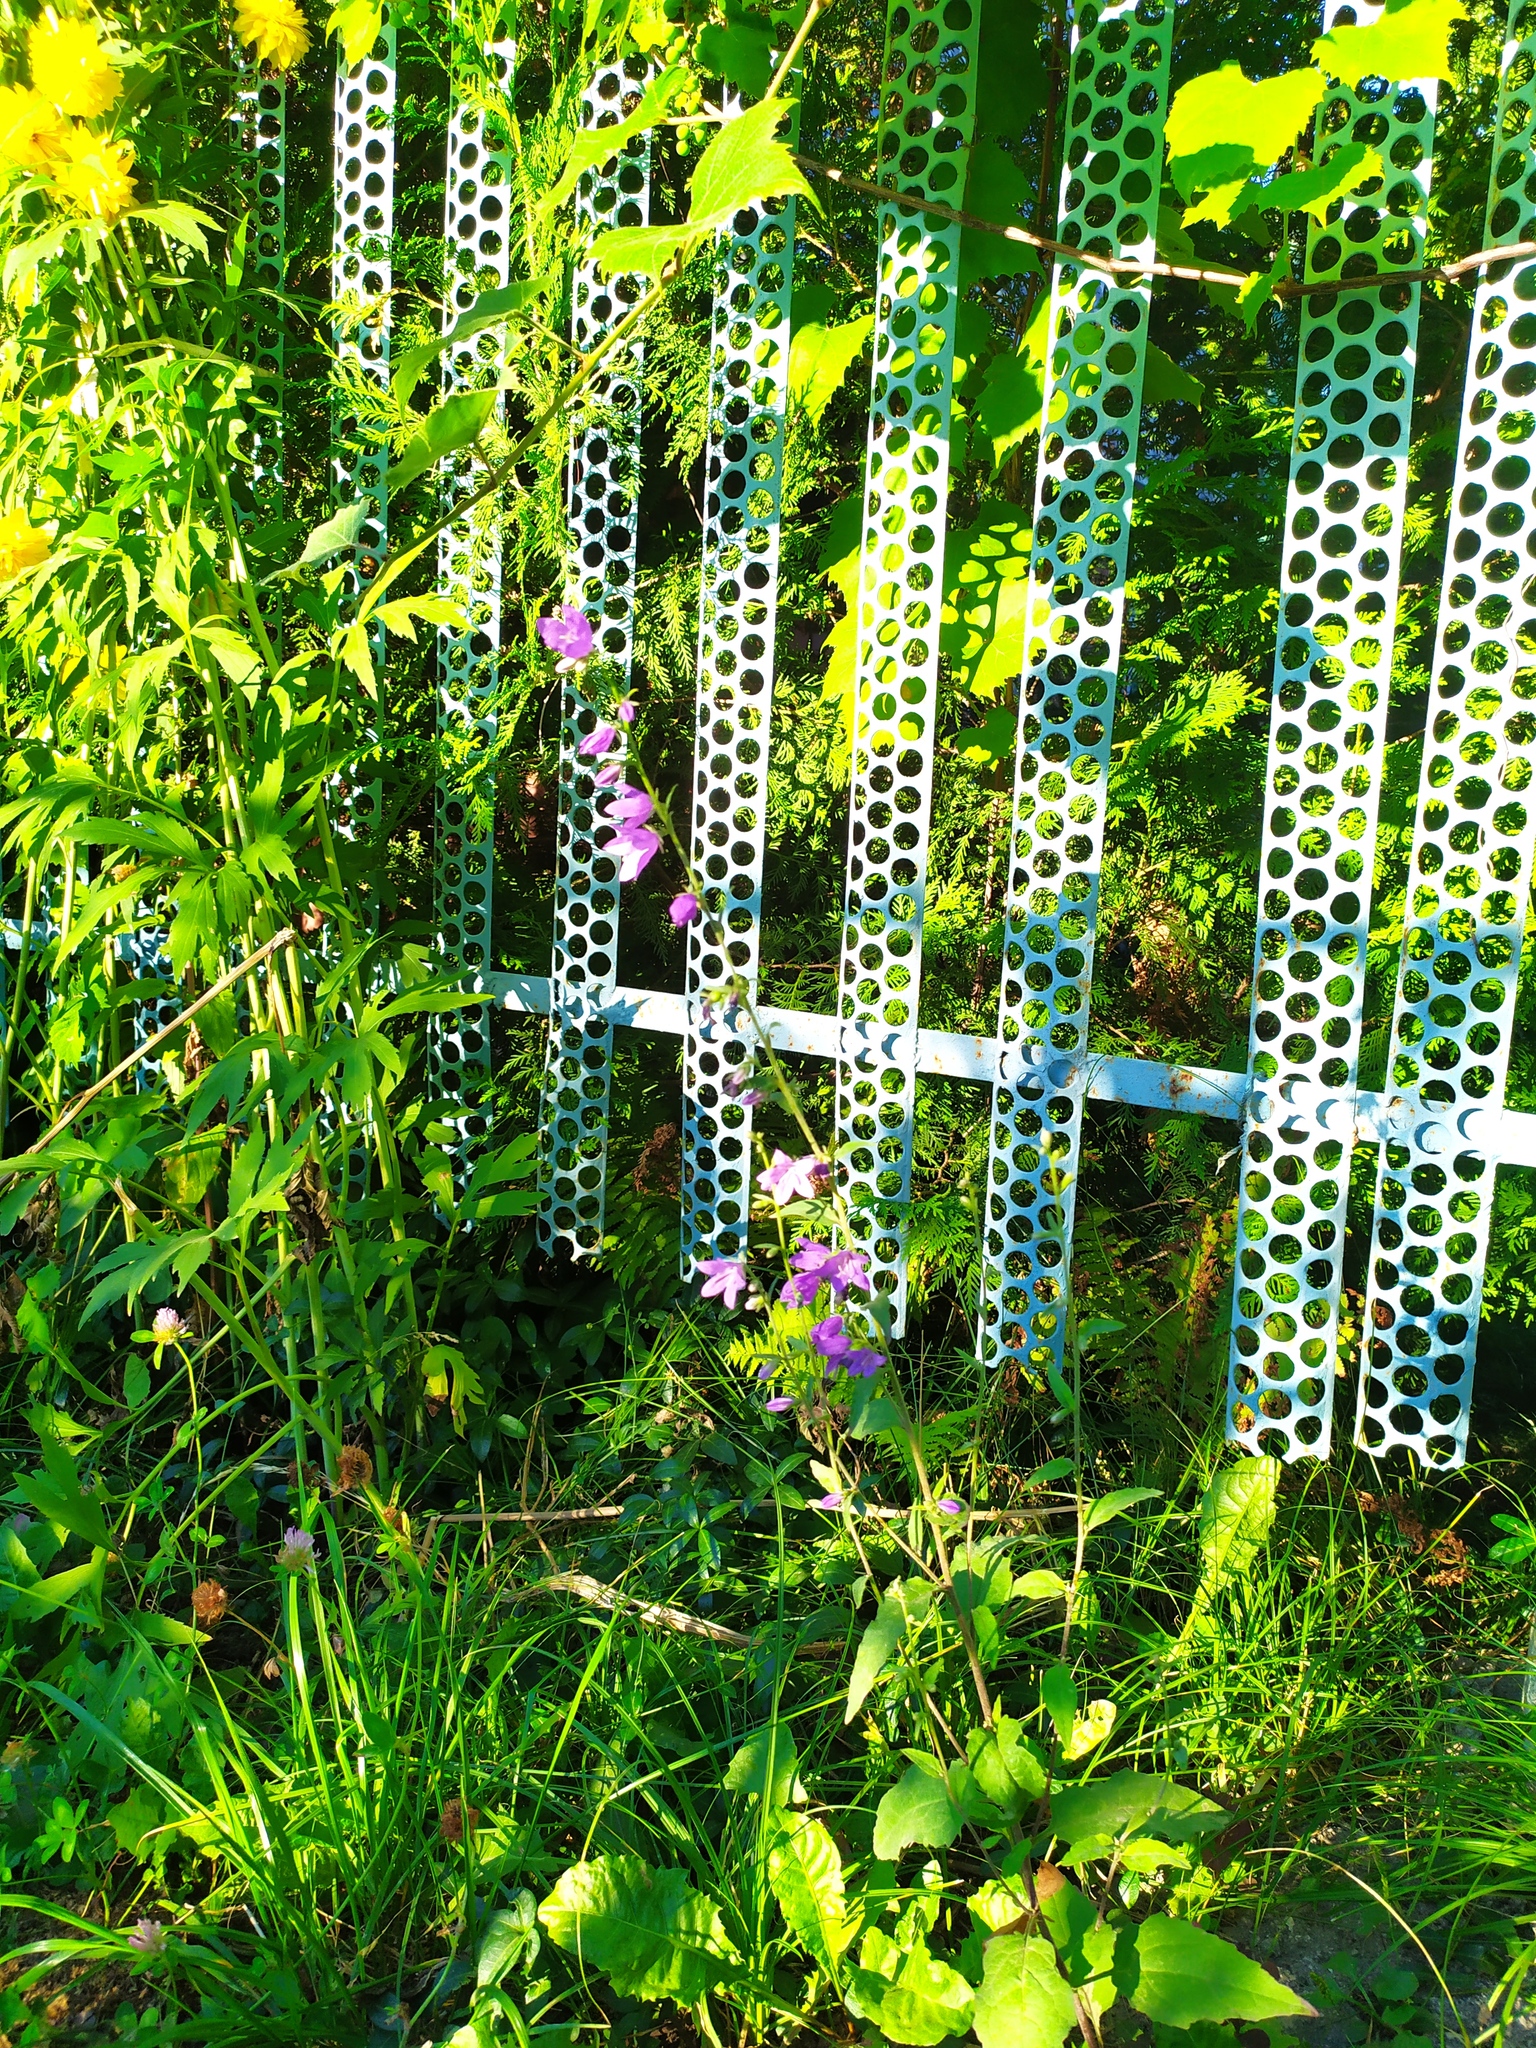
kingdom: Plantae
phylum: Tracheophyta
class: Magnoliopsida
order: Asterales
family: Campanulaceae
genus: Campanula
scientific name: Campanula rapunculoides
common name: Creeping bellflower
